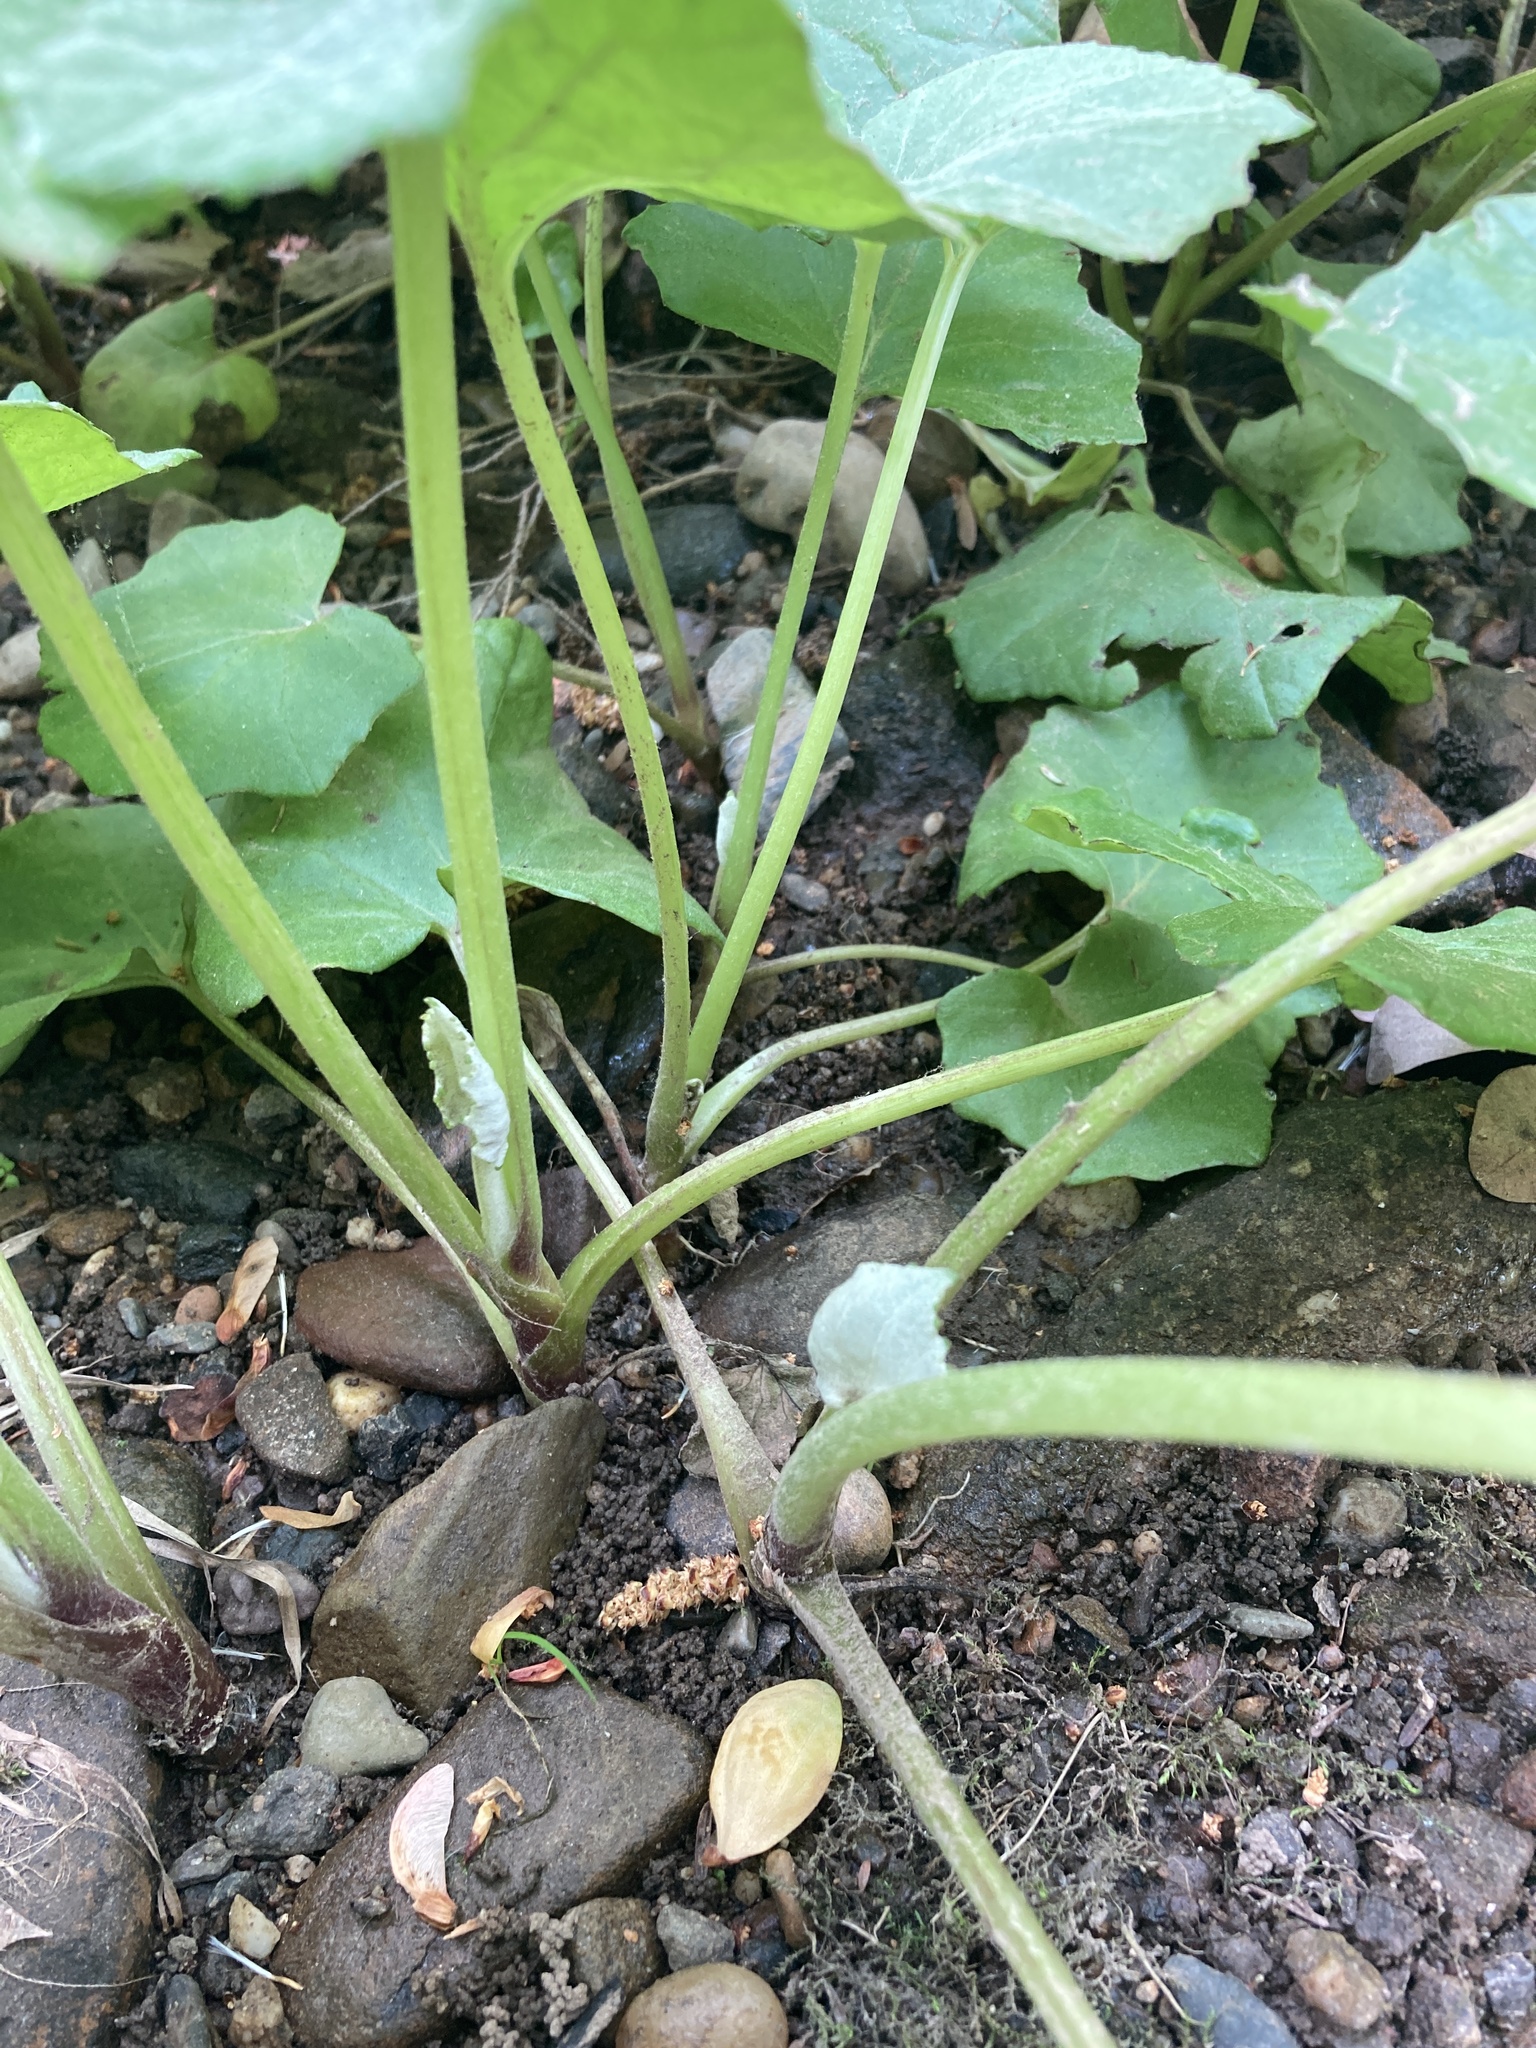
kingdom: Plantae
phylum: Tracheophyta
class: Magnoliopsida
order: Asterales
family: Asteraceae
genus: Tussilago
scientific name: Tussilago farfara
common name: Coltsfoot
